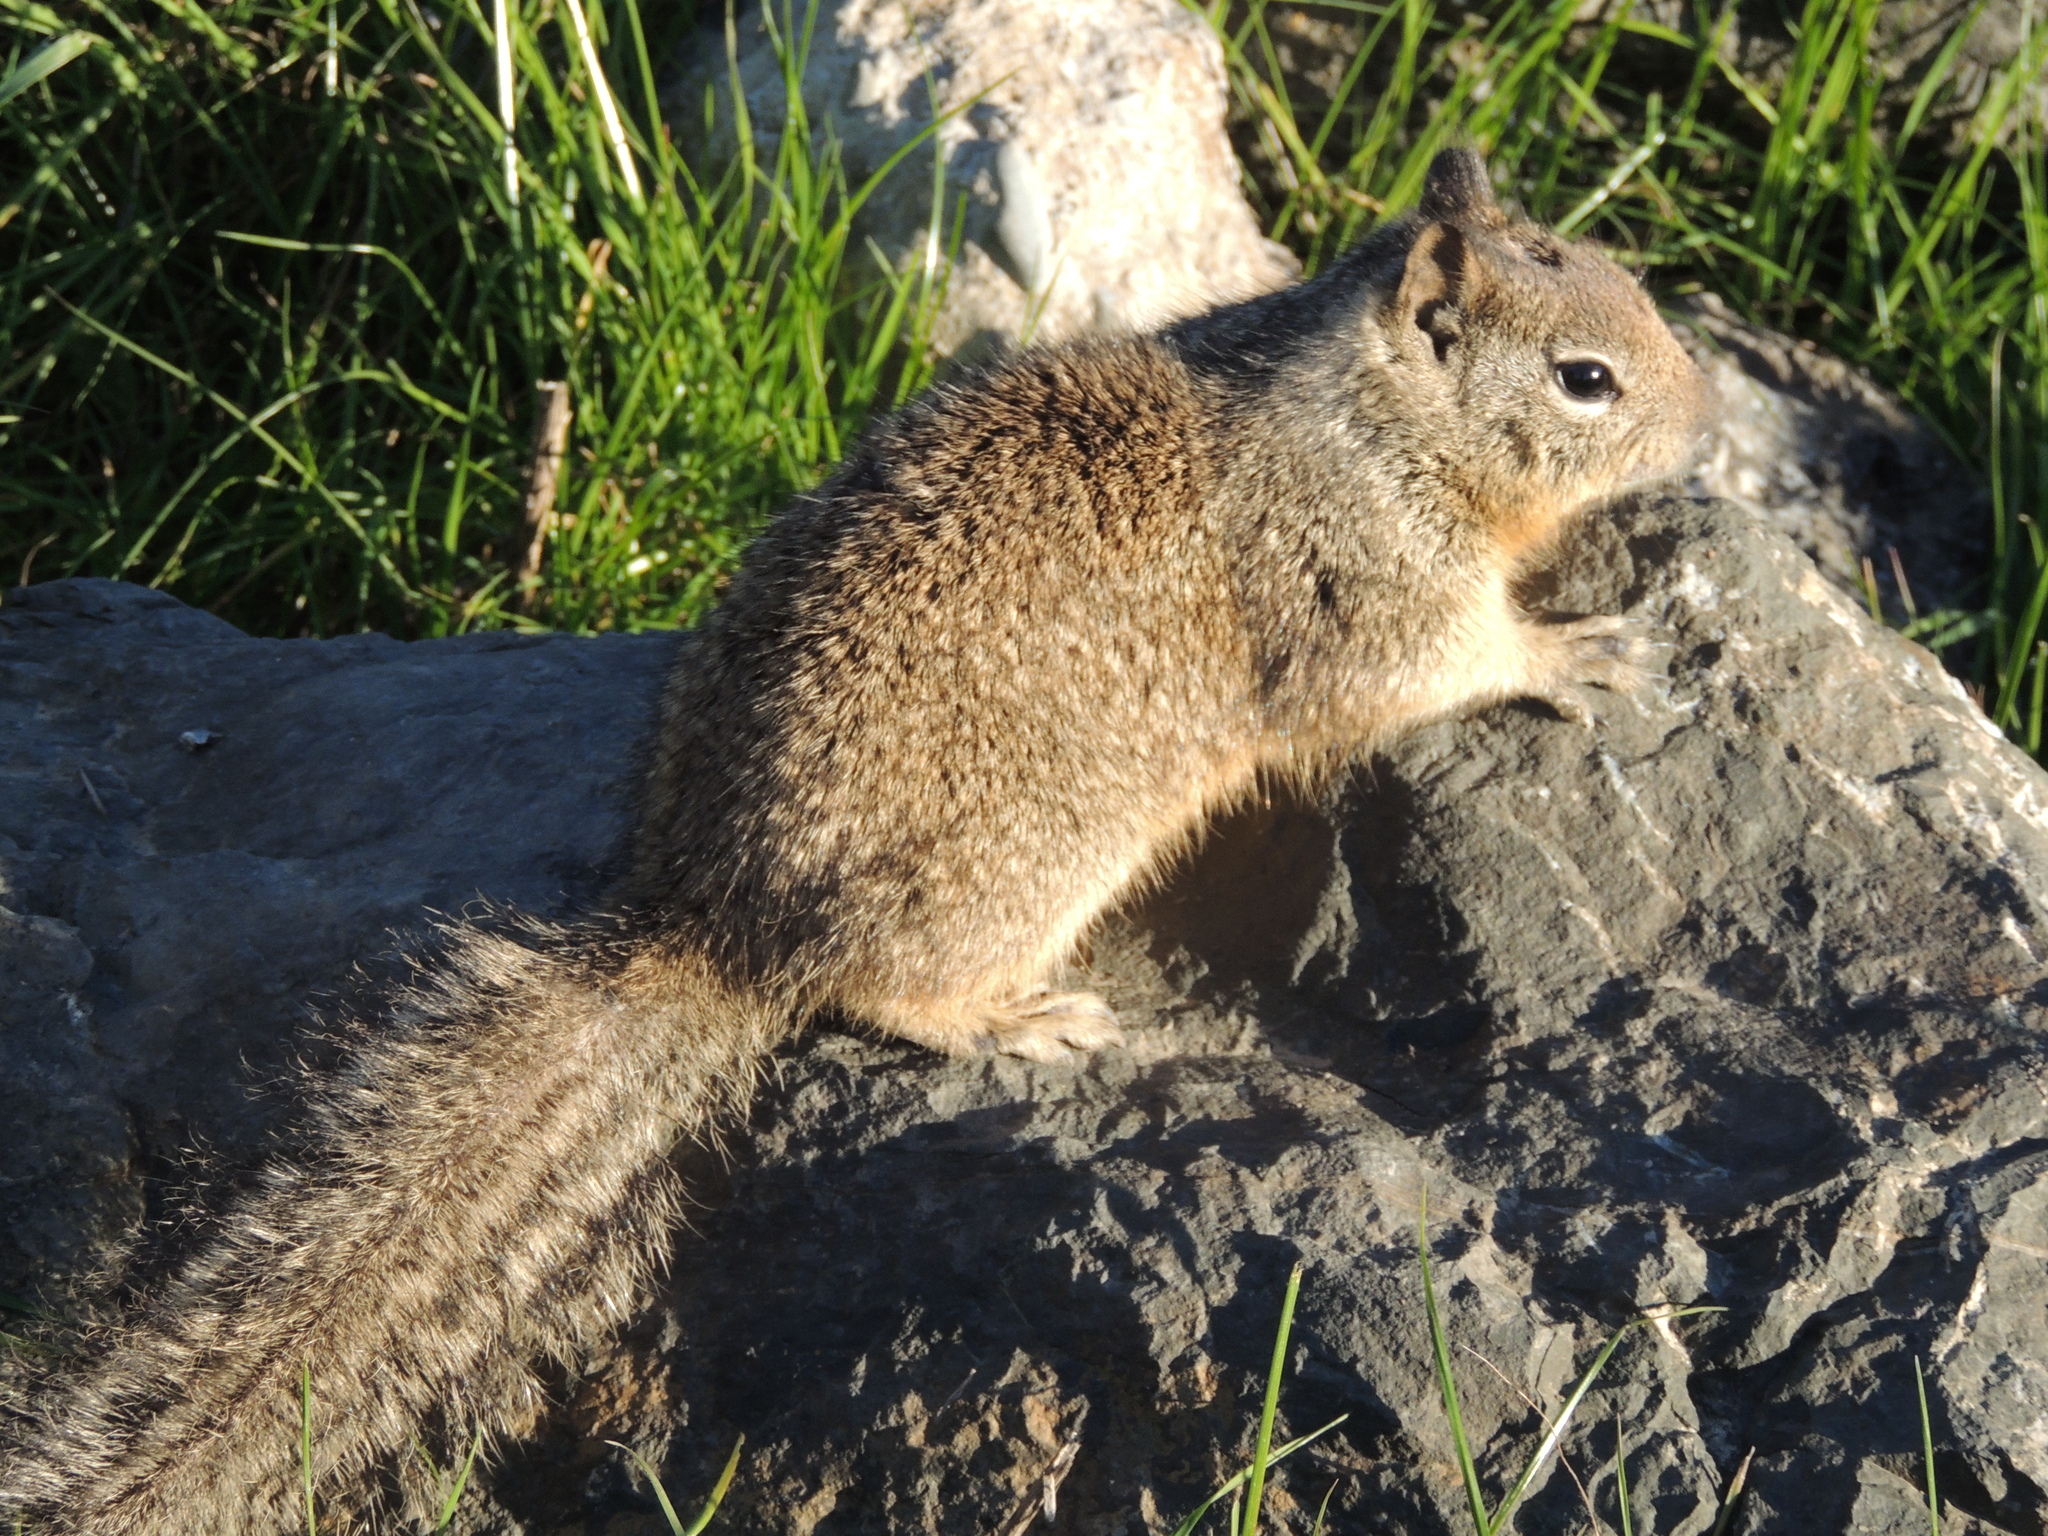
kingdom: Animalia
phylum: Chordata
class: Mammalia
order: Rodentia
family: Sciuridae
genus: Otospermophilus
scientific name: Otospermophilus beecheyi
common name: California ground squirrel
